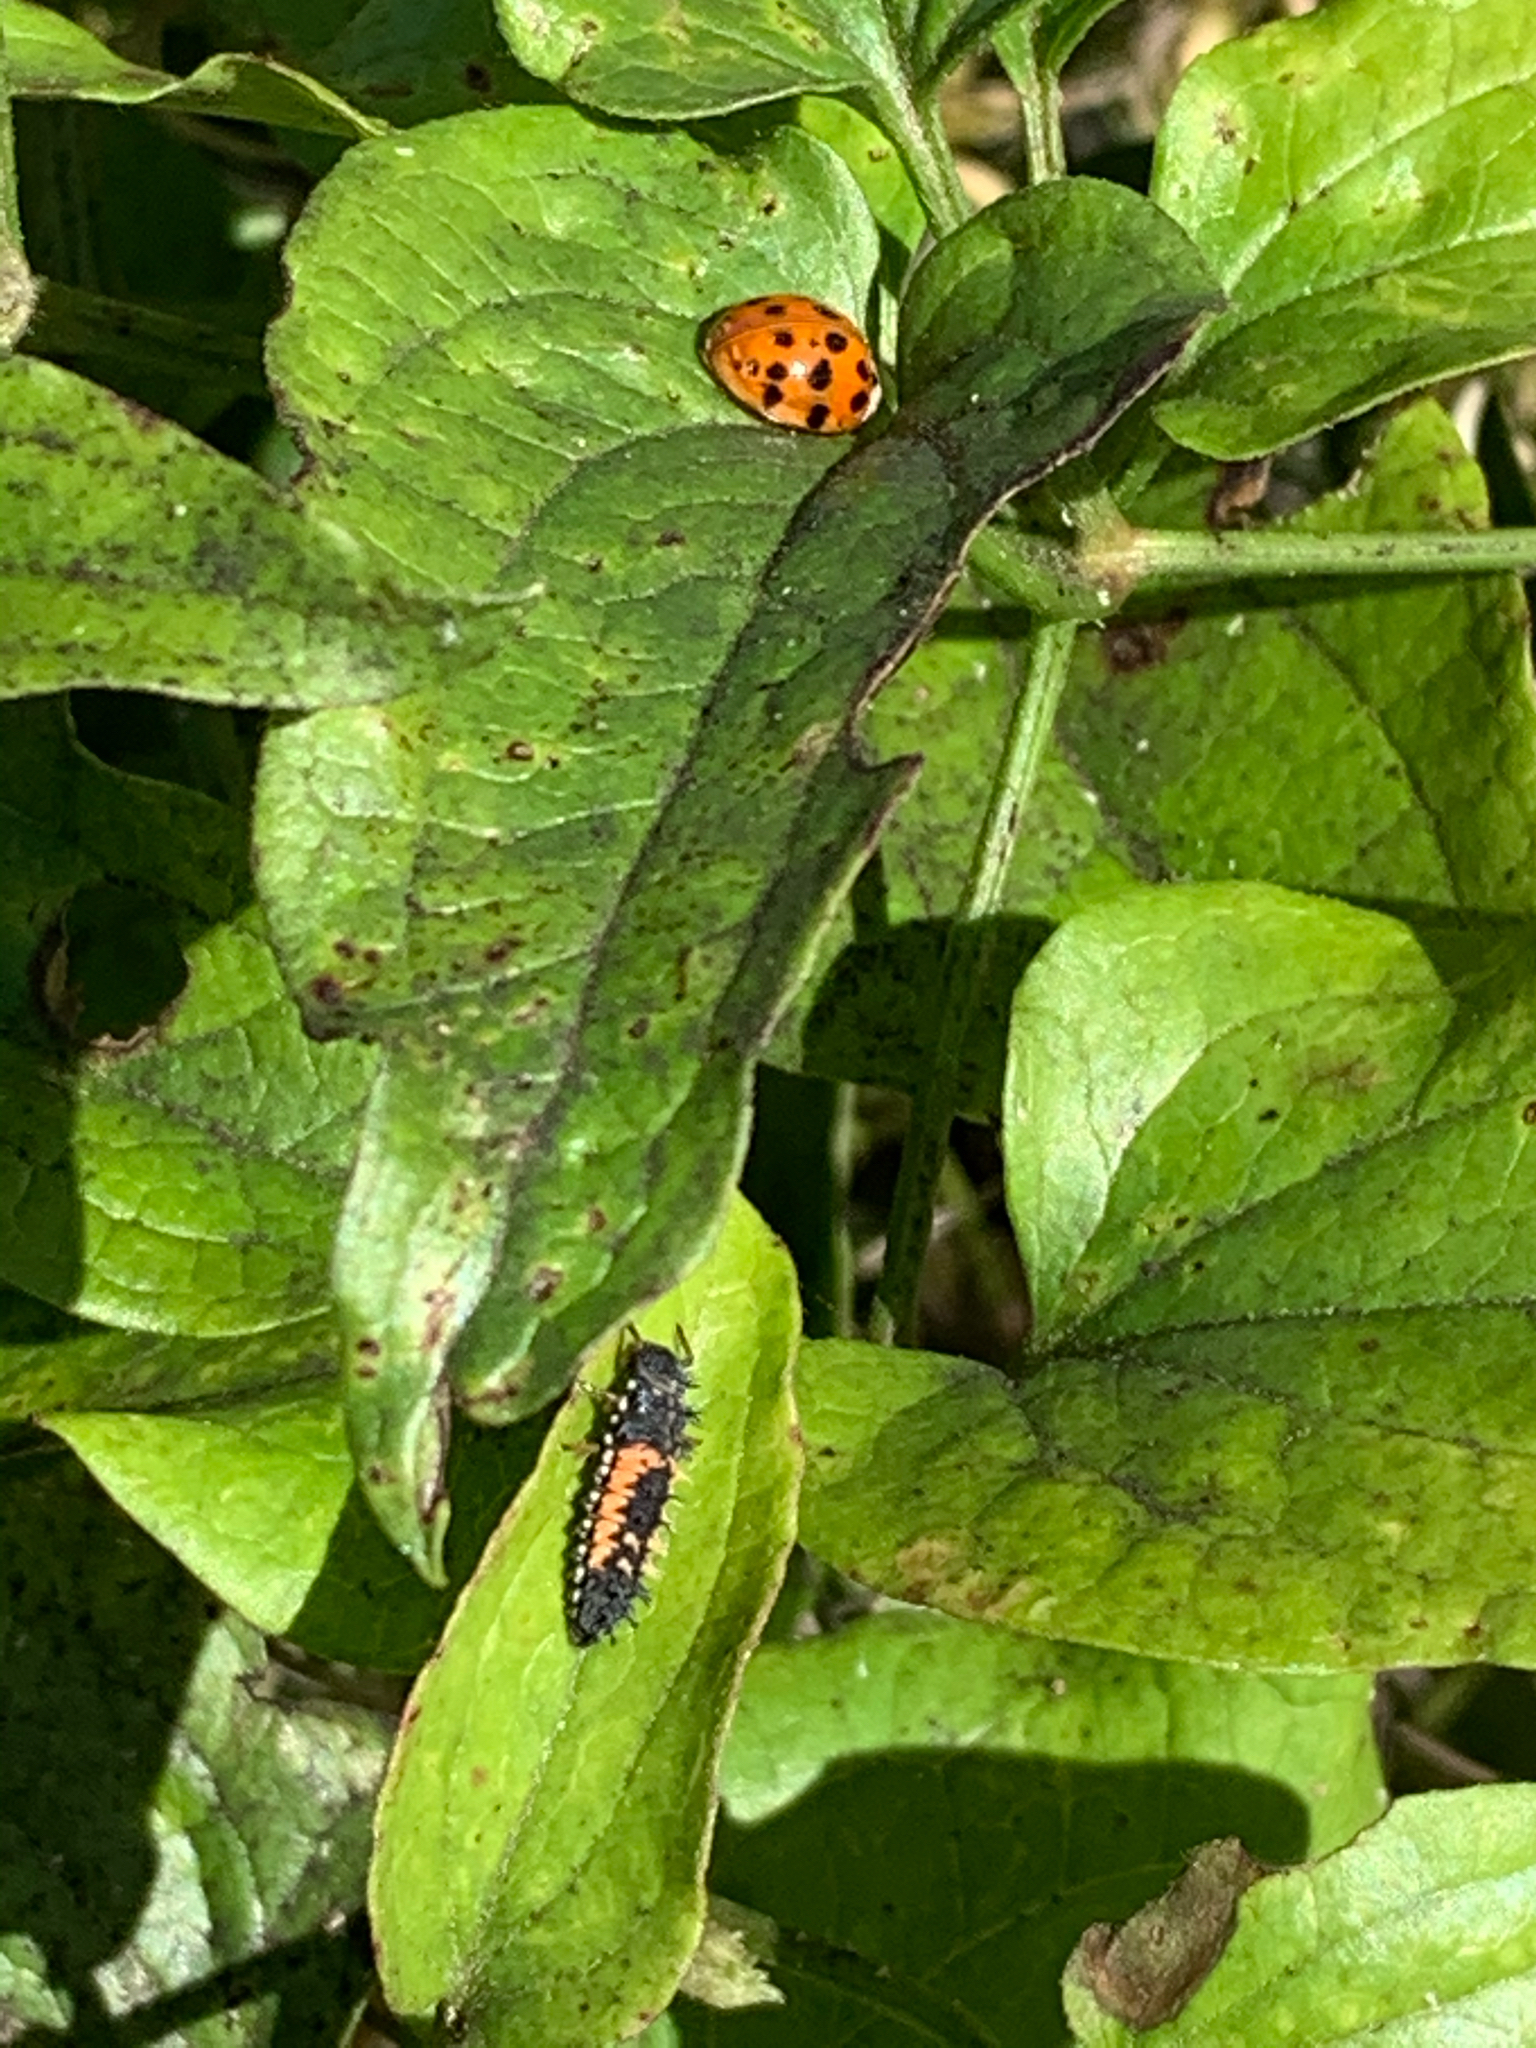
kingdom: Animalia
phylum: Arthropoda
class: Insecta
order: Coleoptera
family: Coccinellidae
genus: Harmonia
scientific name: Harmonia axyridis
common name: Harlequin ladybird
